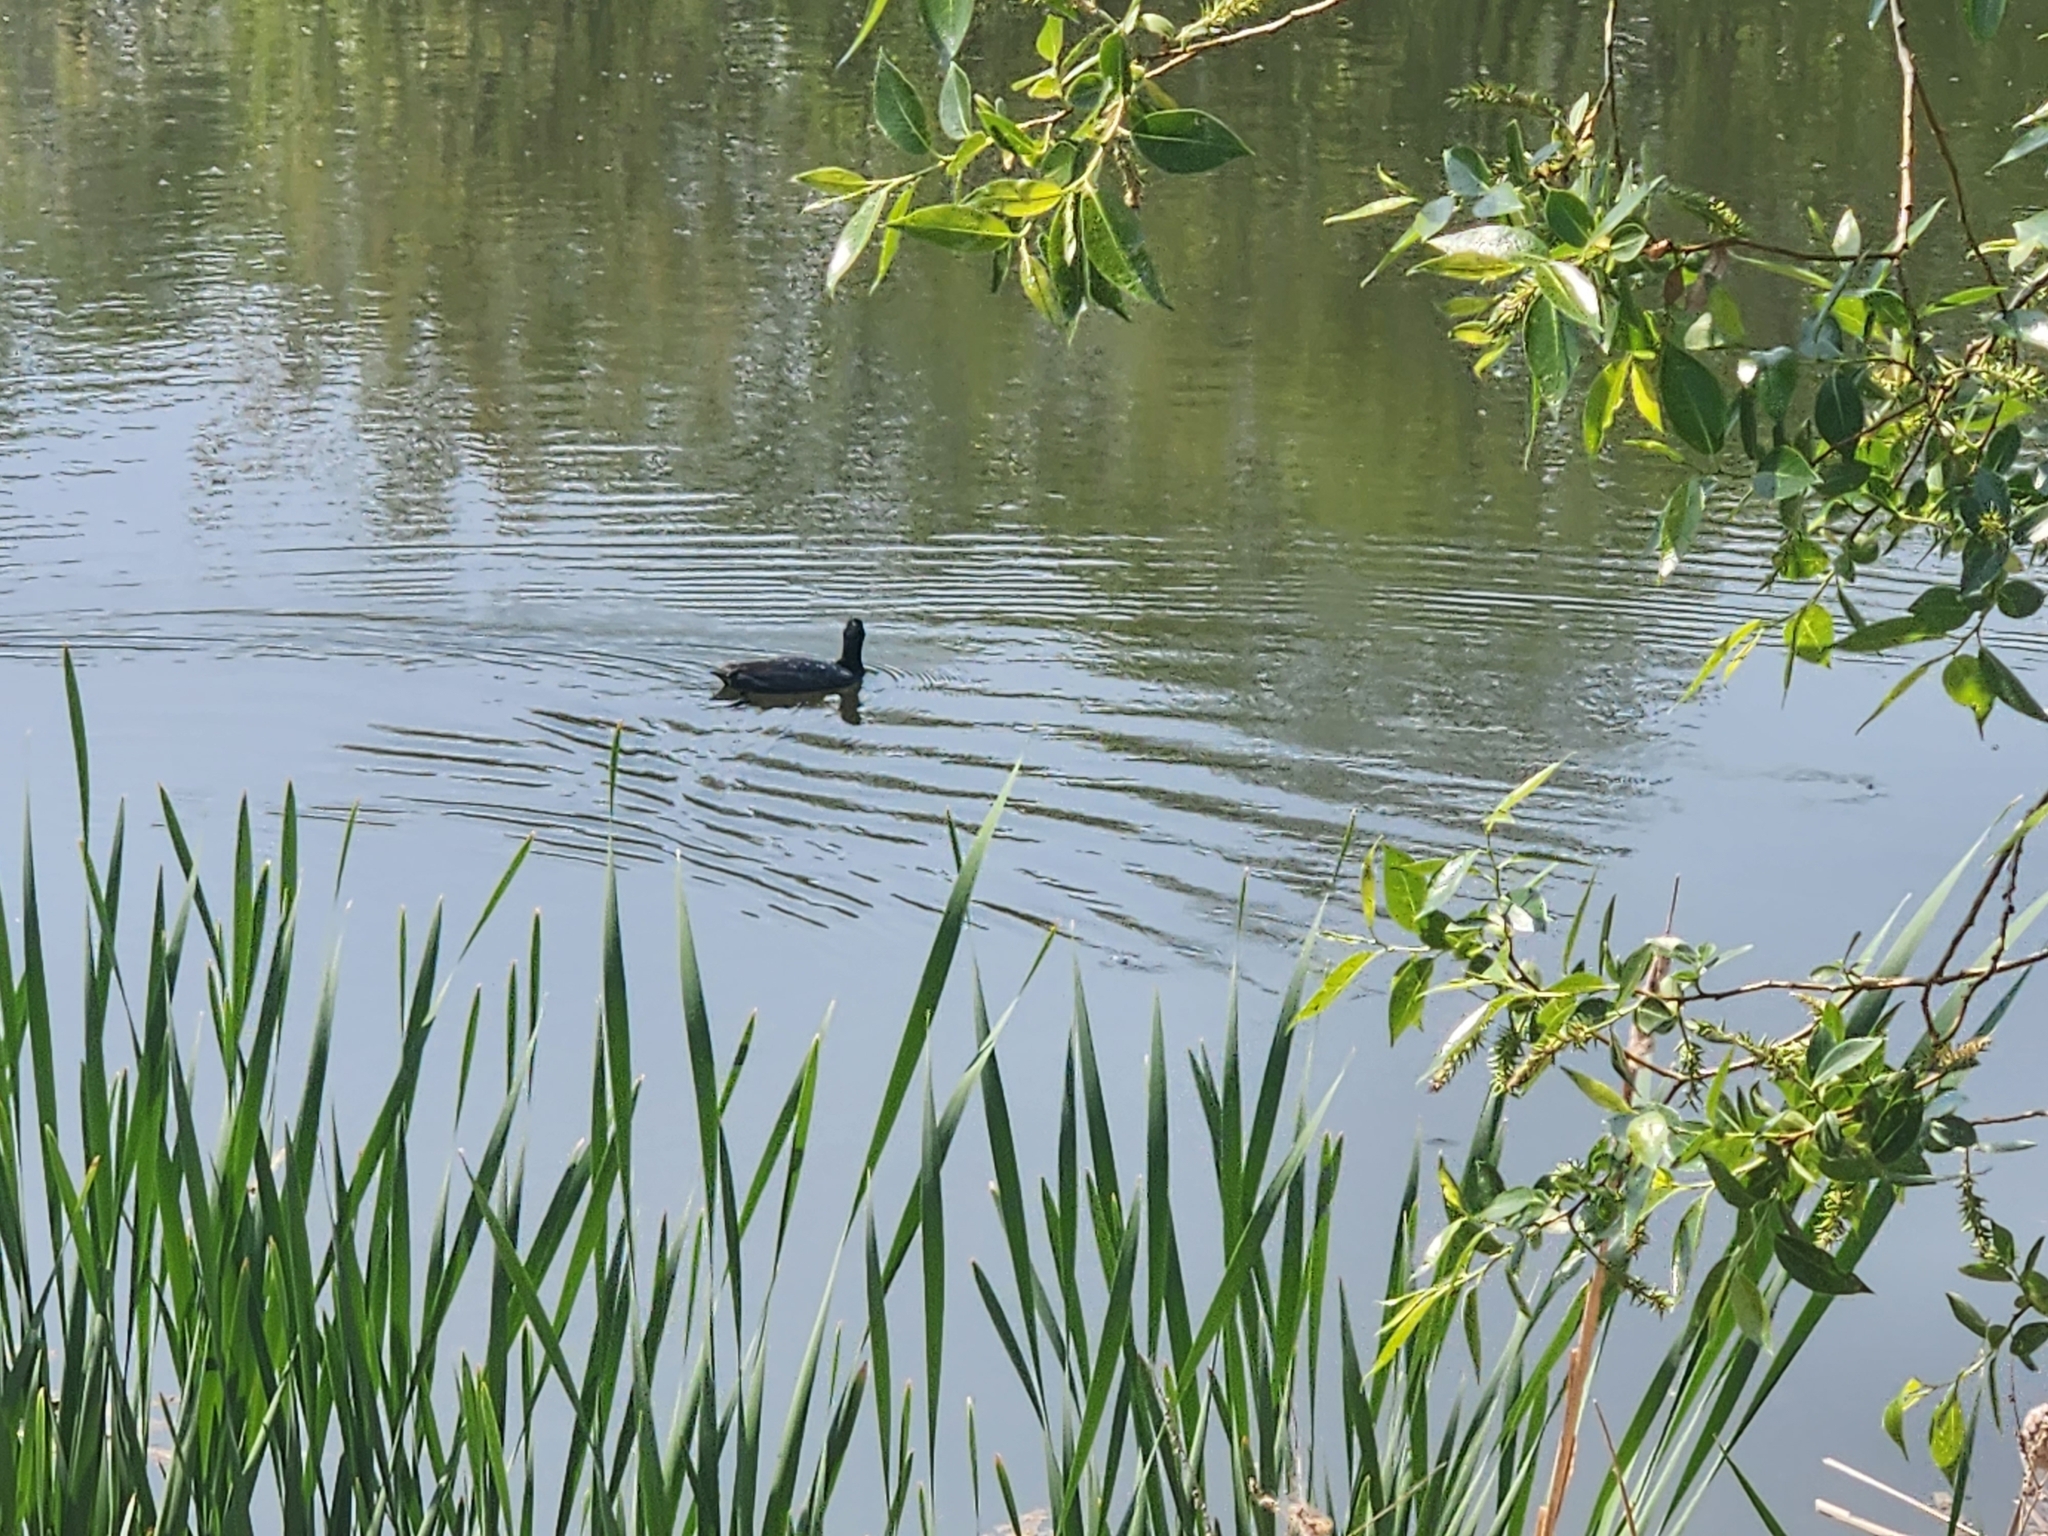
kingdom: Animalia
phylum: Chordata
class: Aves
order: Gruiformes
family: Rallidae
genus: Fulica
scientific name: Fulica americana
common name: American coot
